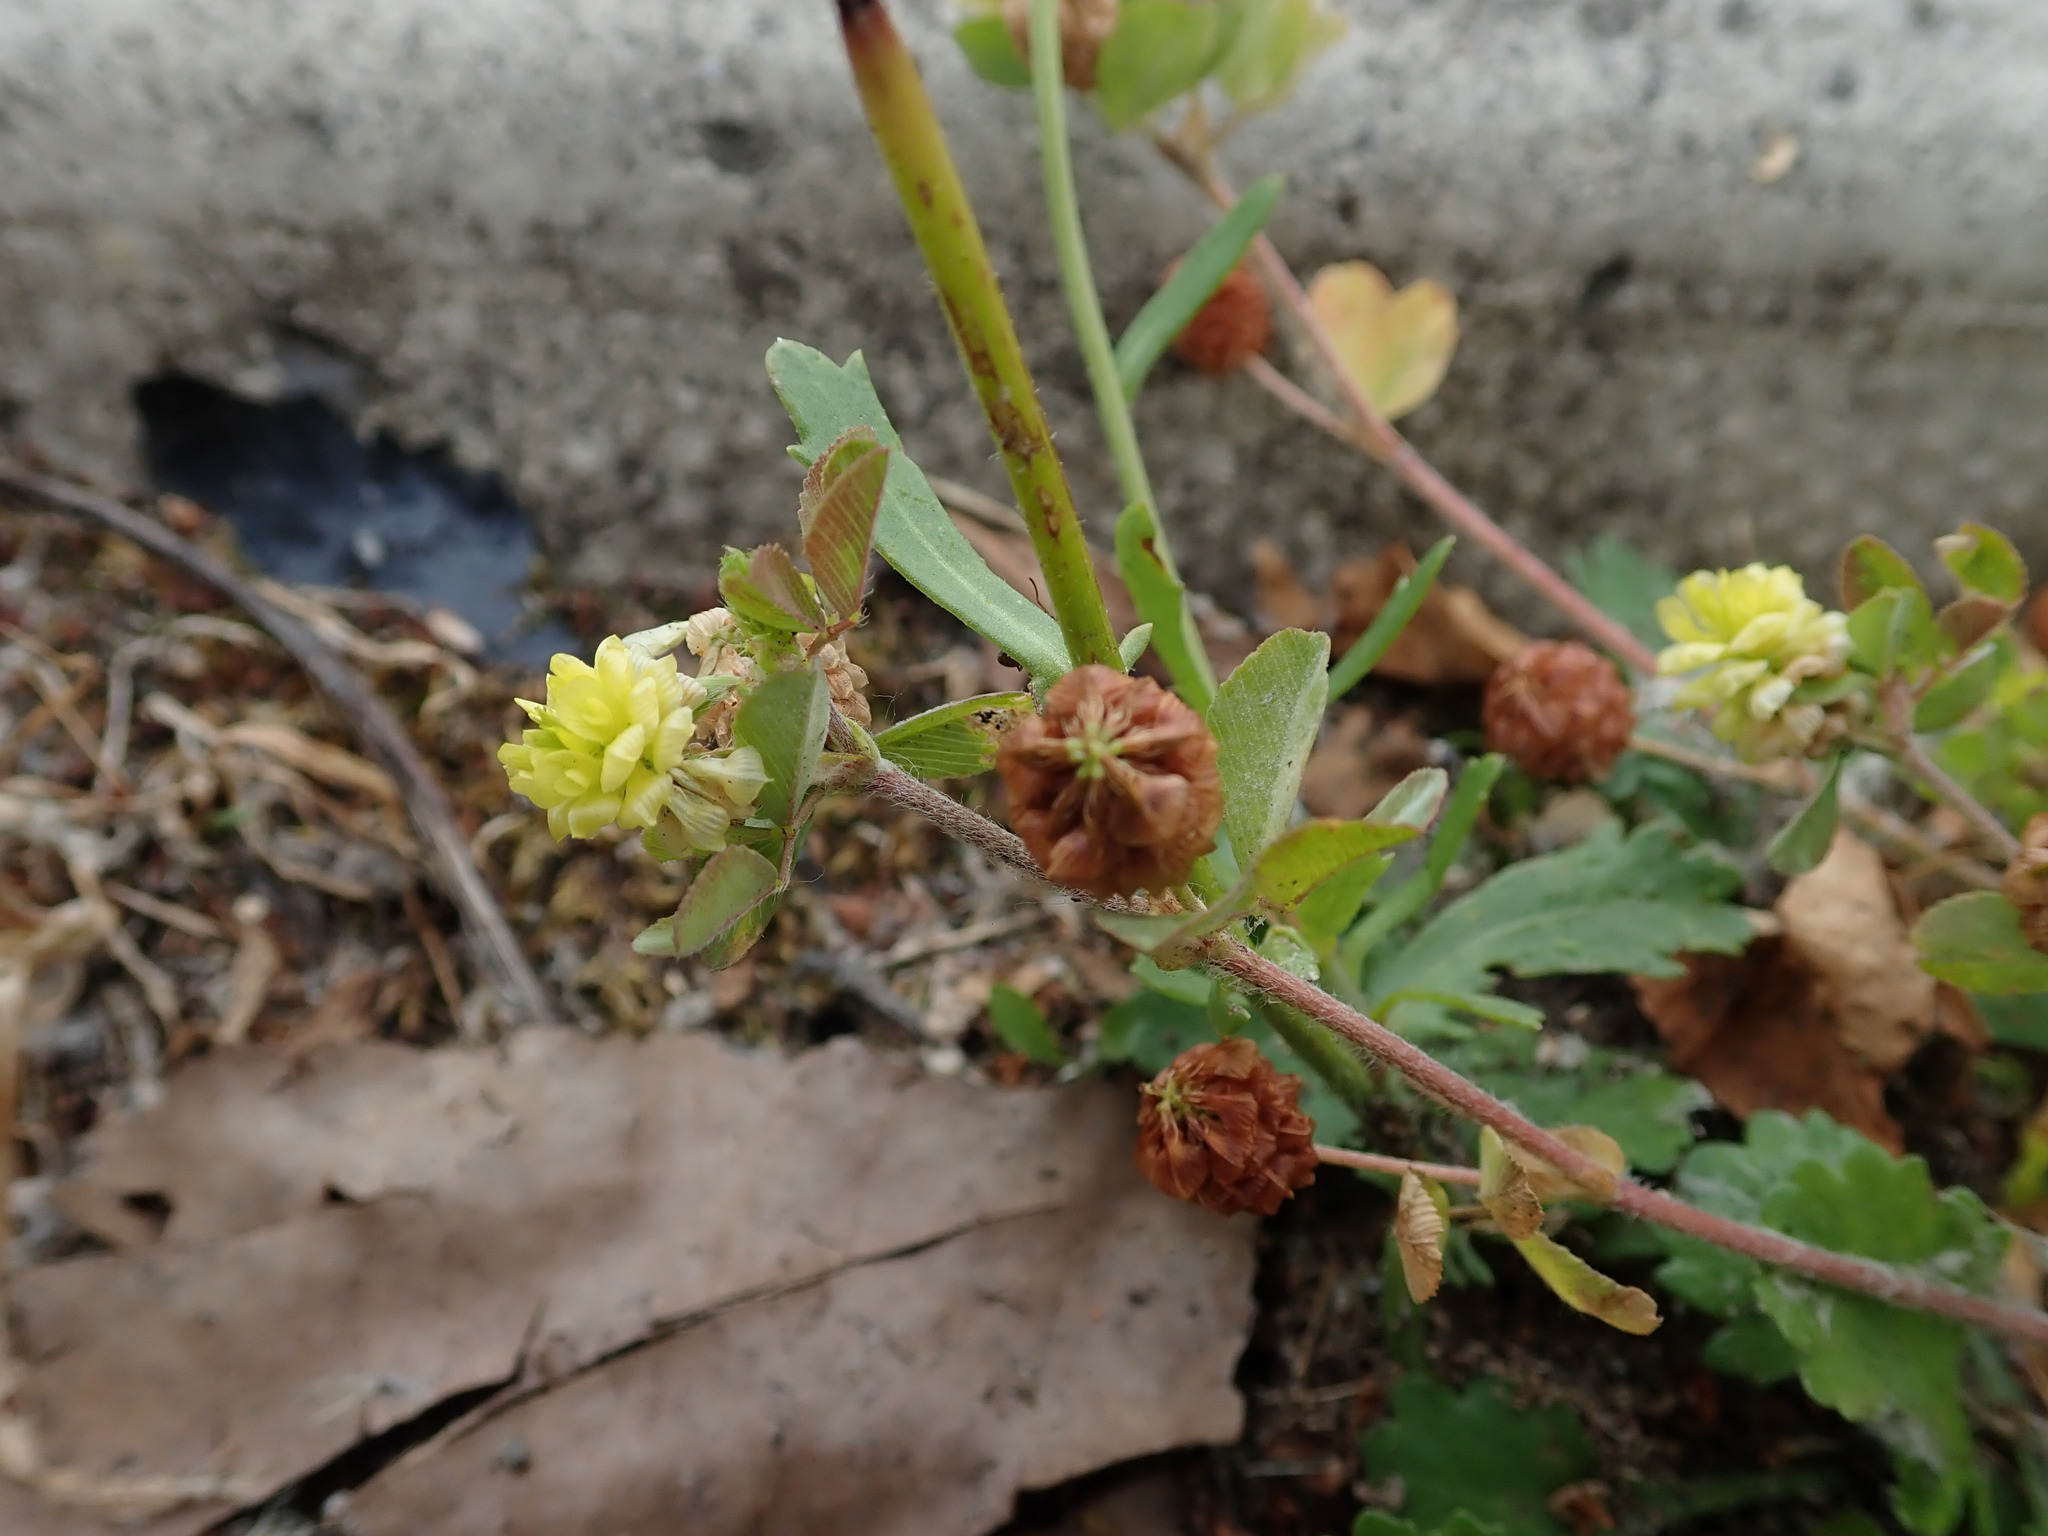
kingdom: Plantae
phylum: Tracheophyta
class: Magnoliopsida
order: Fabales
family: Fabaceae
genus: Trifolium
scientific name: Trifolium campestre
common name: Field clover
